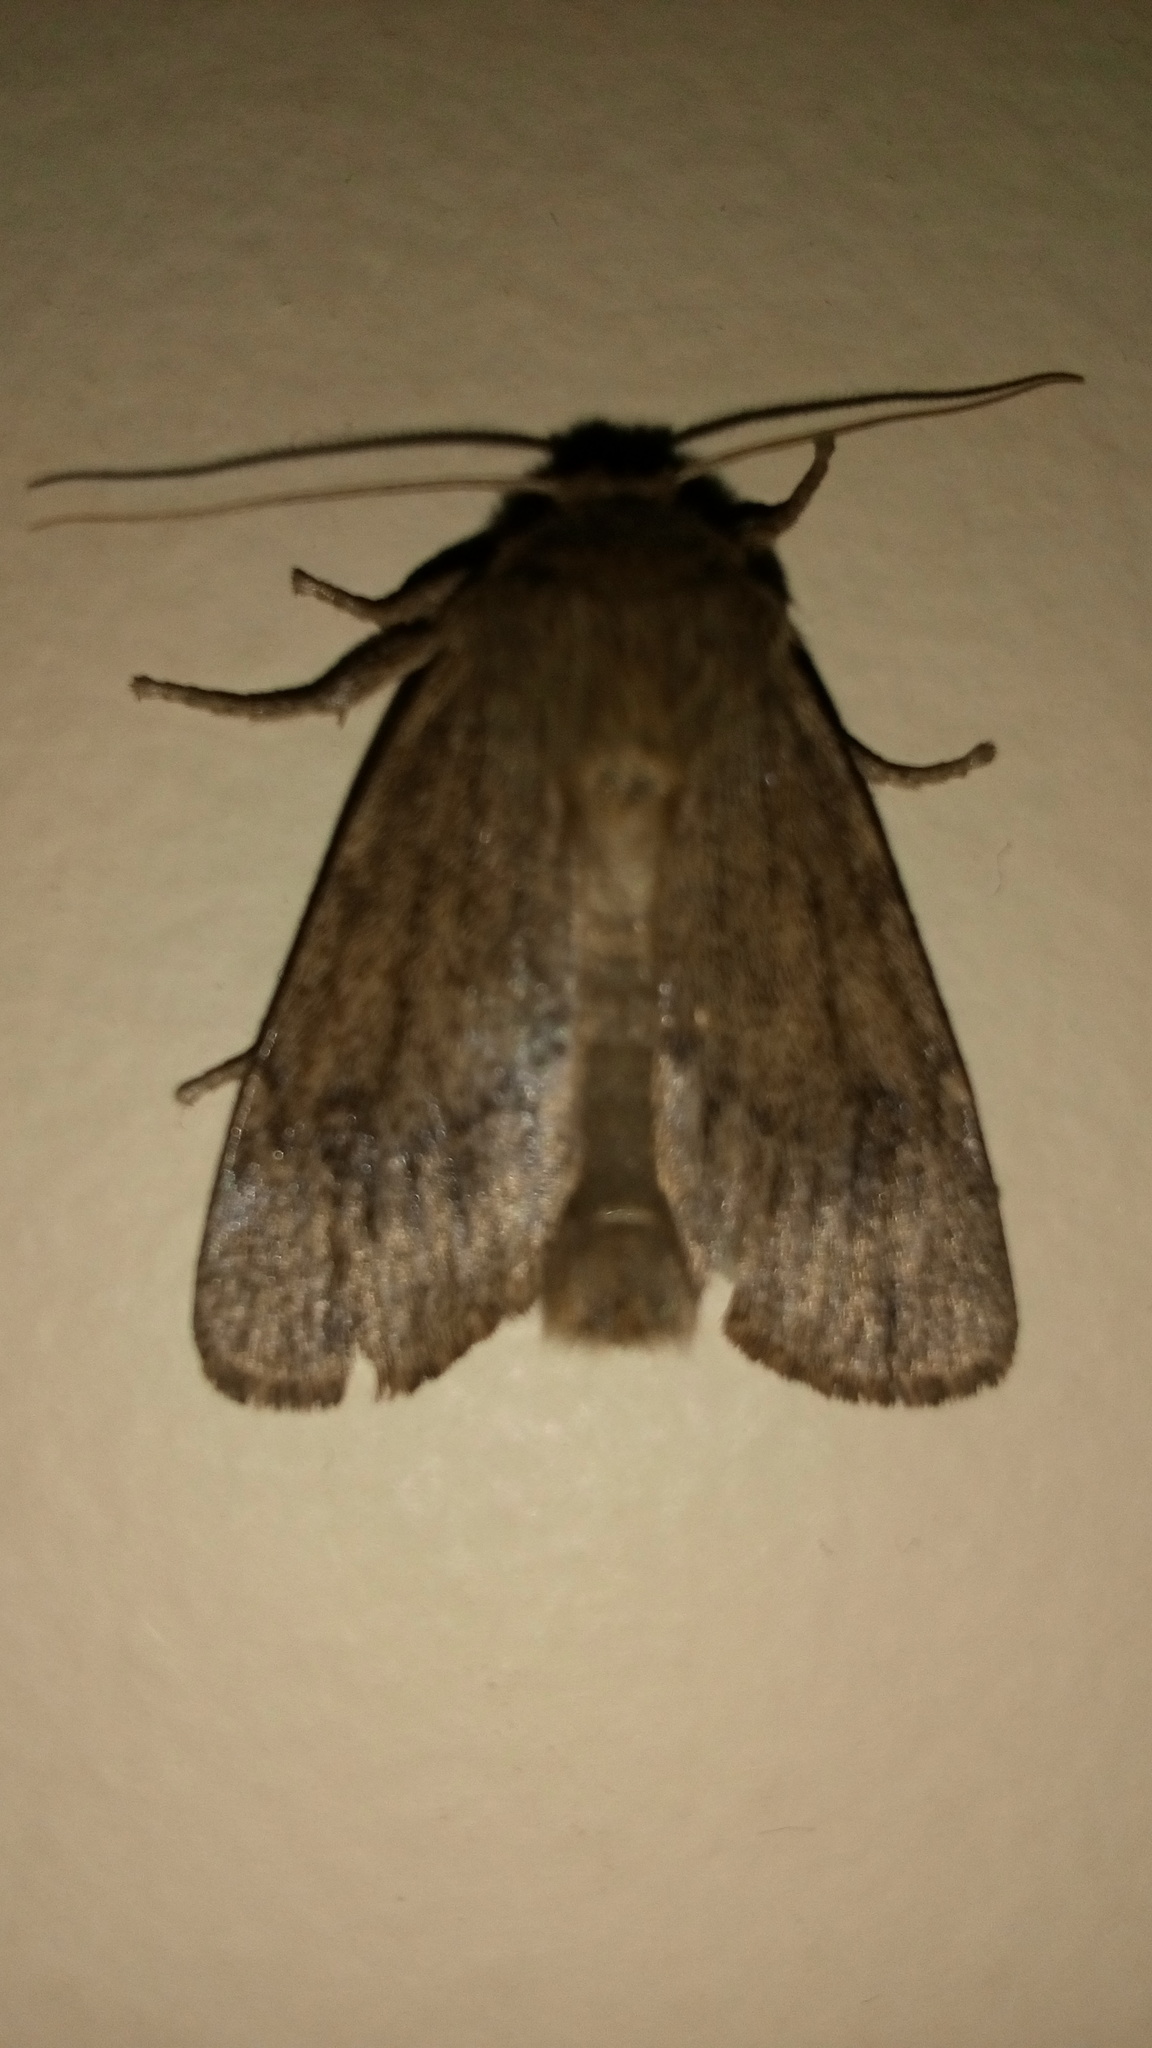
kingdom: Animalia
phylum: Arthropoda
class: Insecta
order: Lepidoptera
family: Noctuidae
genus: Ufeus
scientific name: Ufeus satyricus
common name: Brown satyr moth
